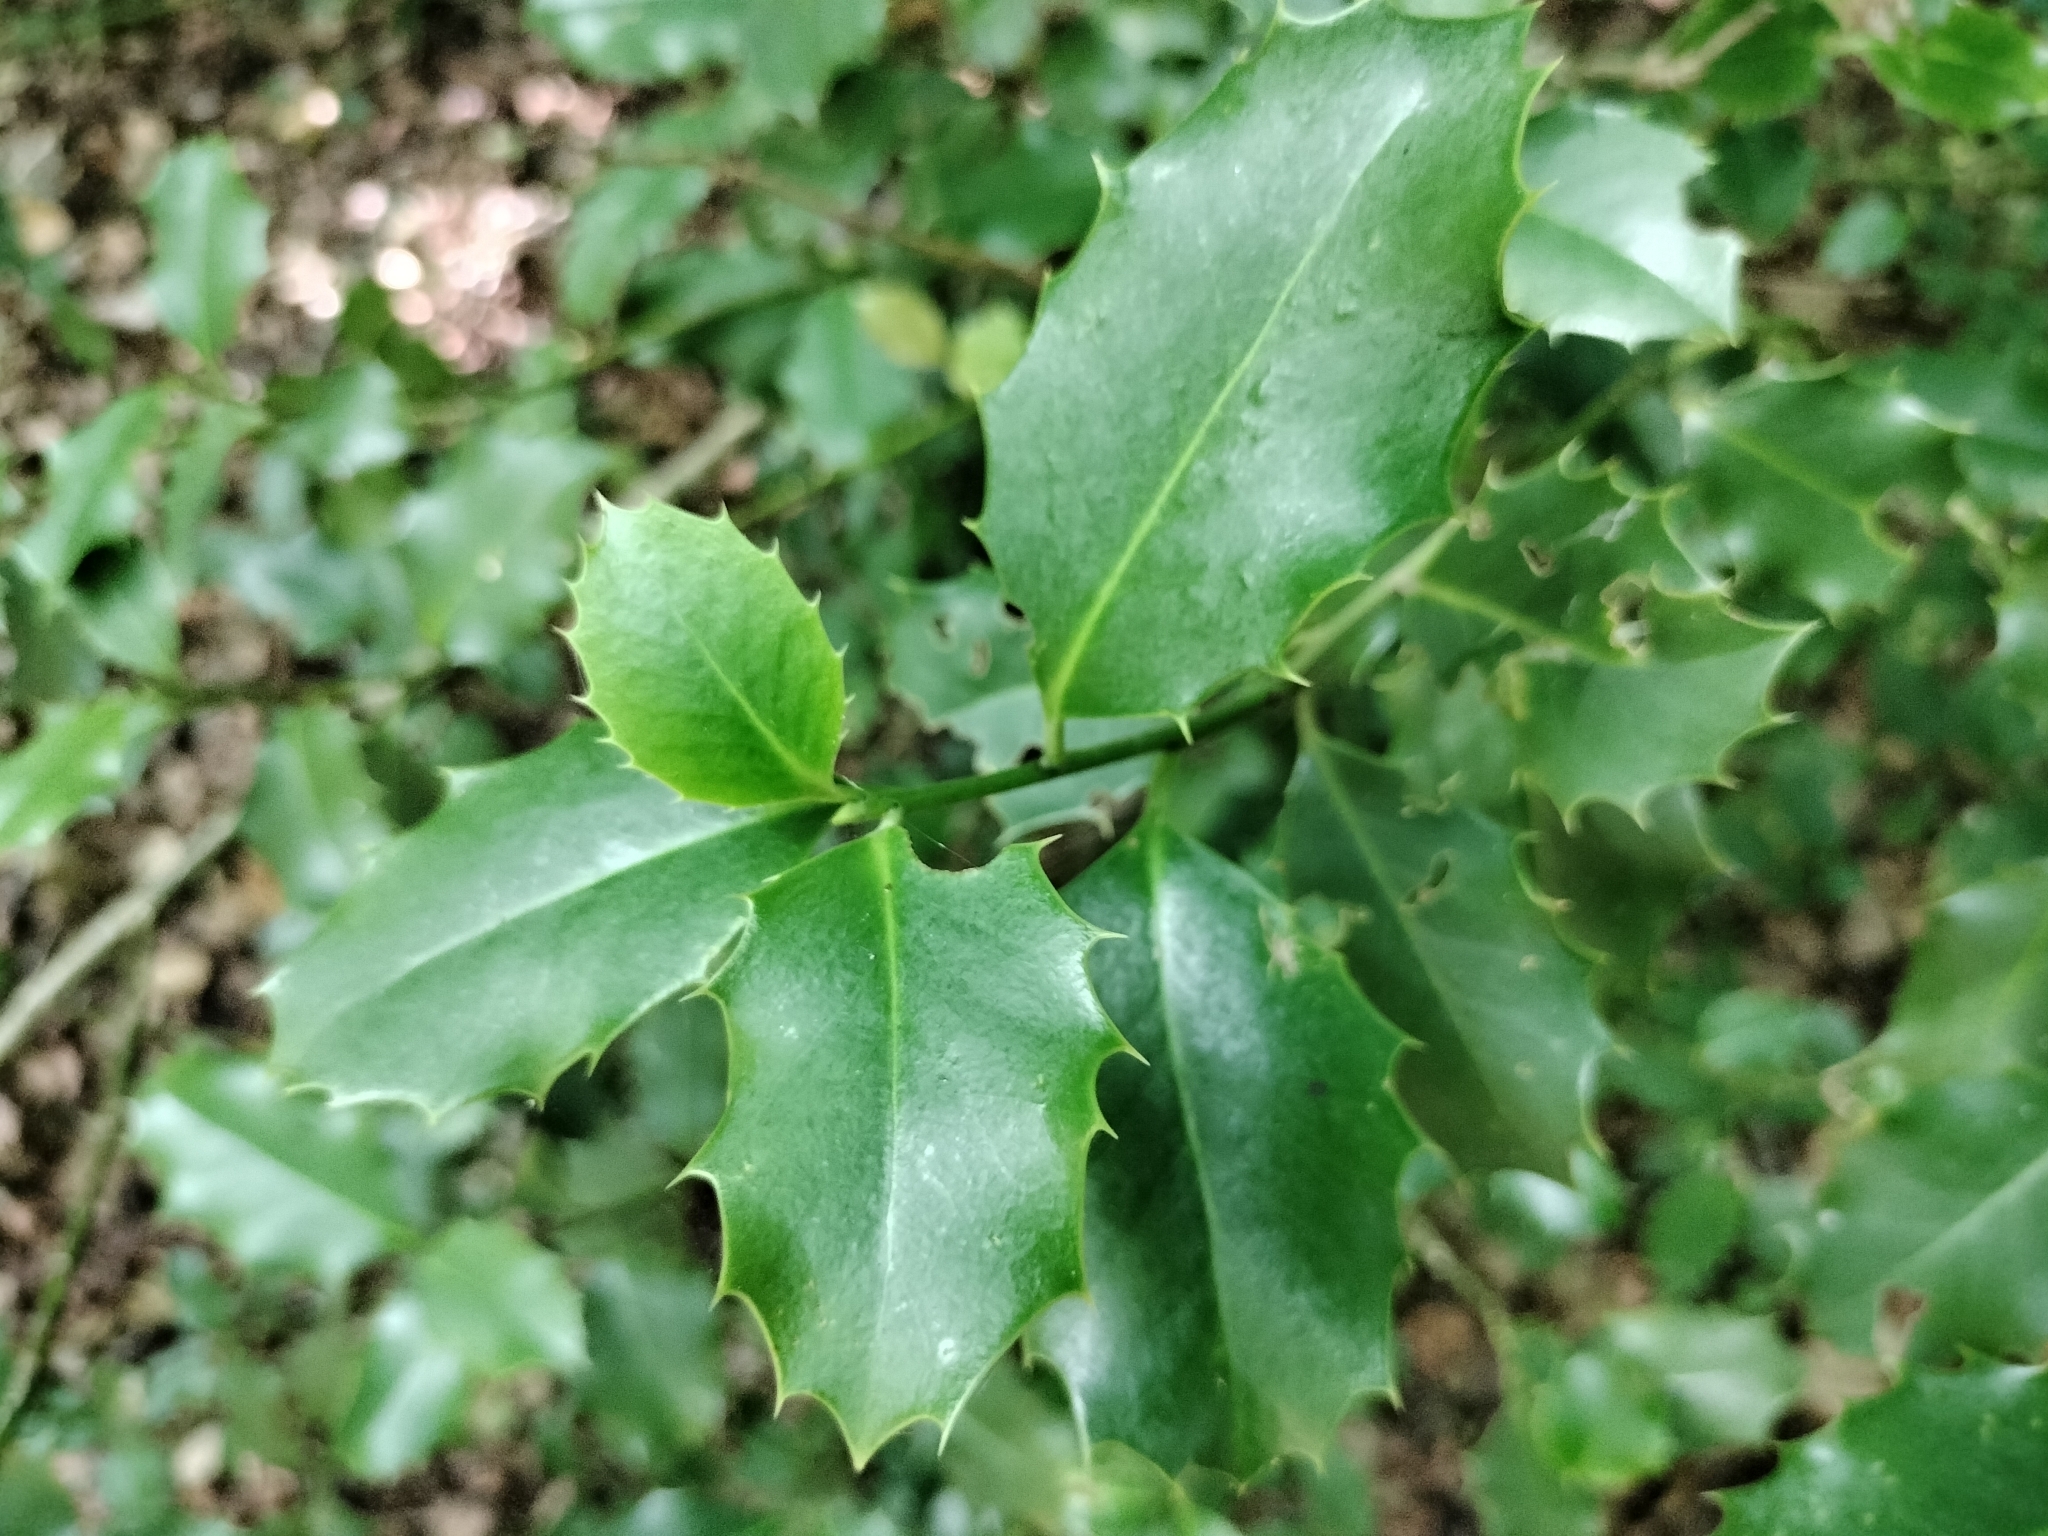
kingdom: Plantae
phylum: Tracheophyta
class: Magnoliopsida
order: Aquifoliales
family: Aquifoliaceae
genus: Ilex
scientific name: Ilex aquifolium
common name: English holly
